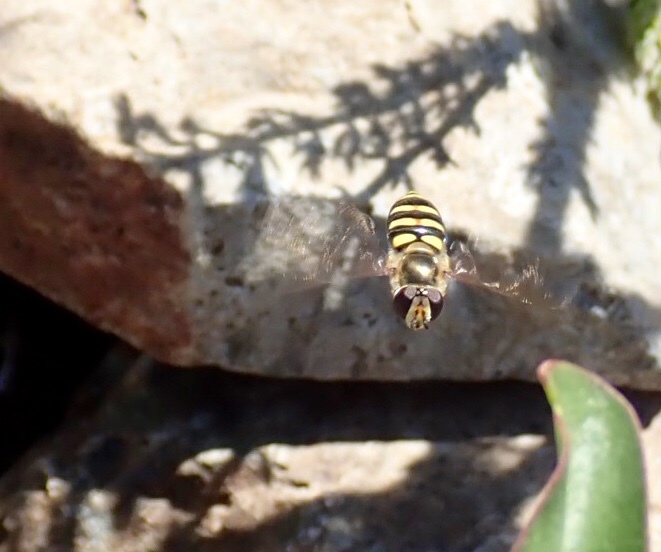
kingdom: Animalia
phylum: Arthropoda
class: Insecta
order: Diptera
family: Syrphidae
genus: Eupeodes
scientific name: Eupeodes fumipennis
